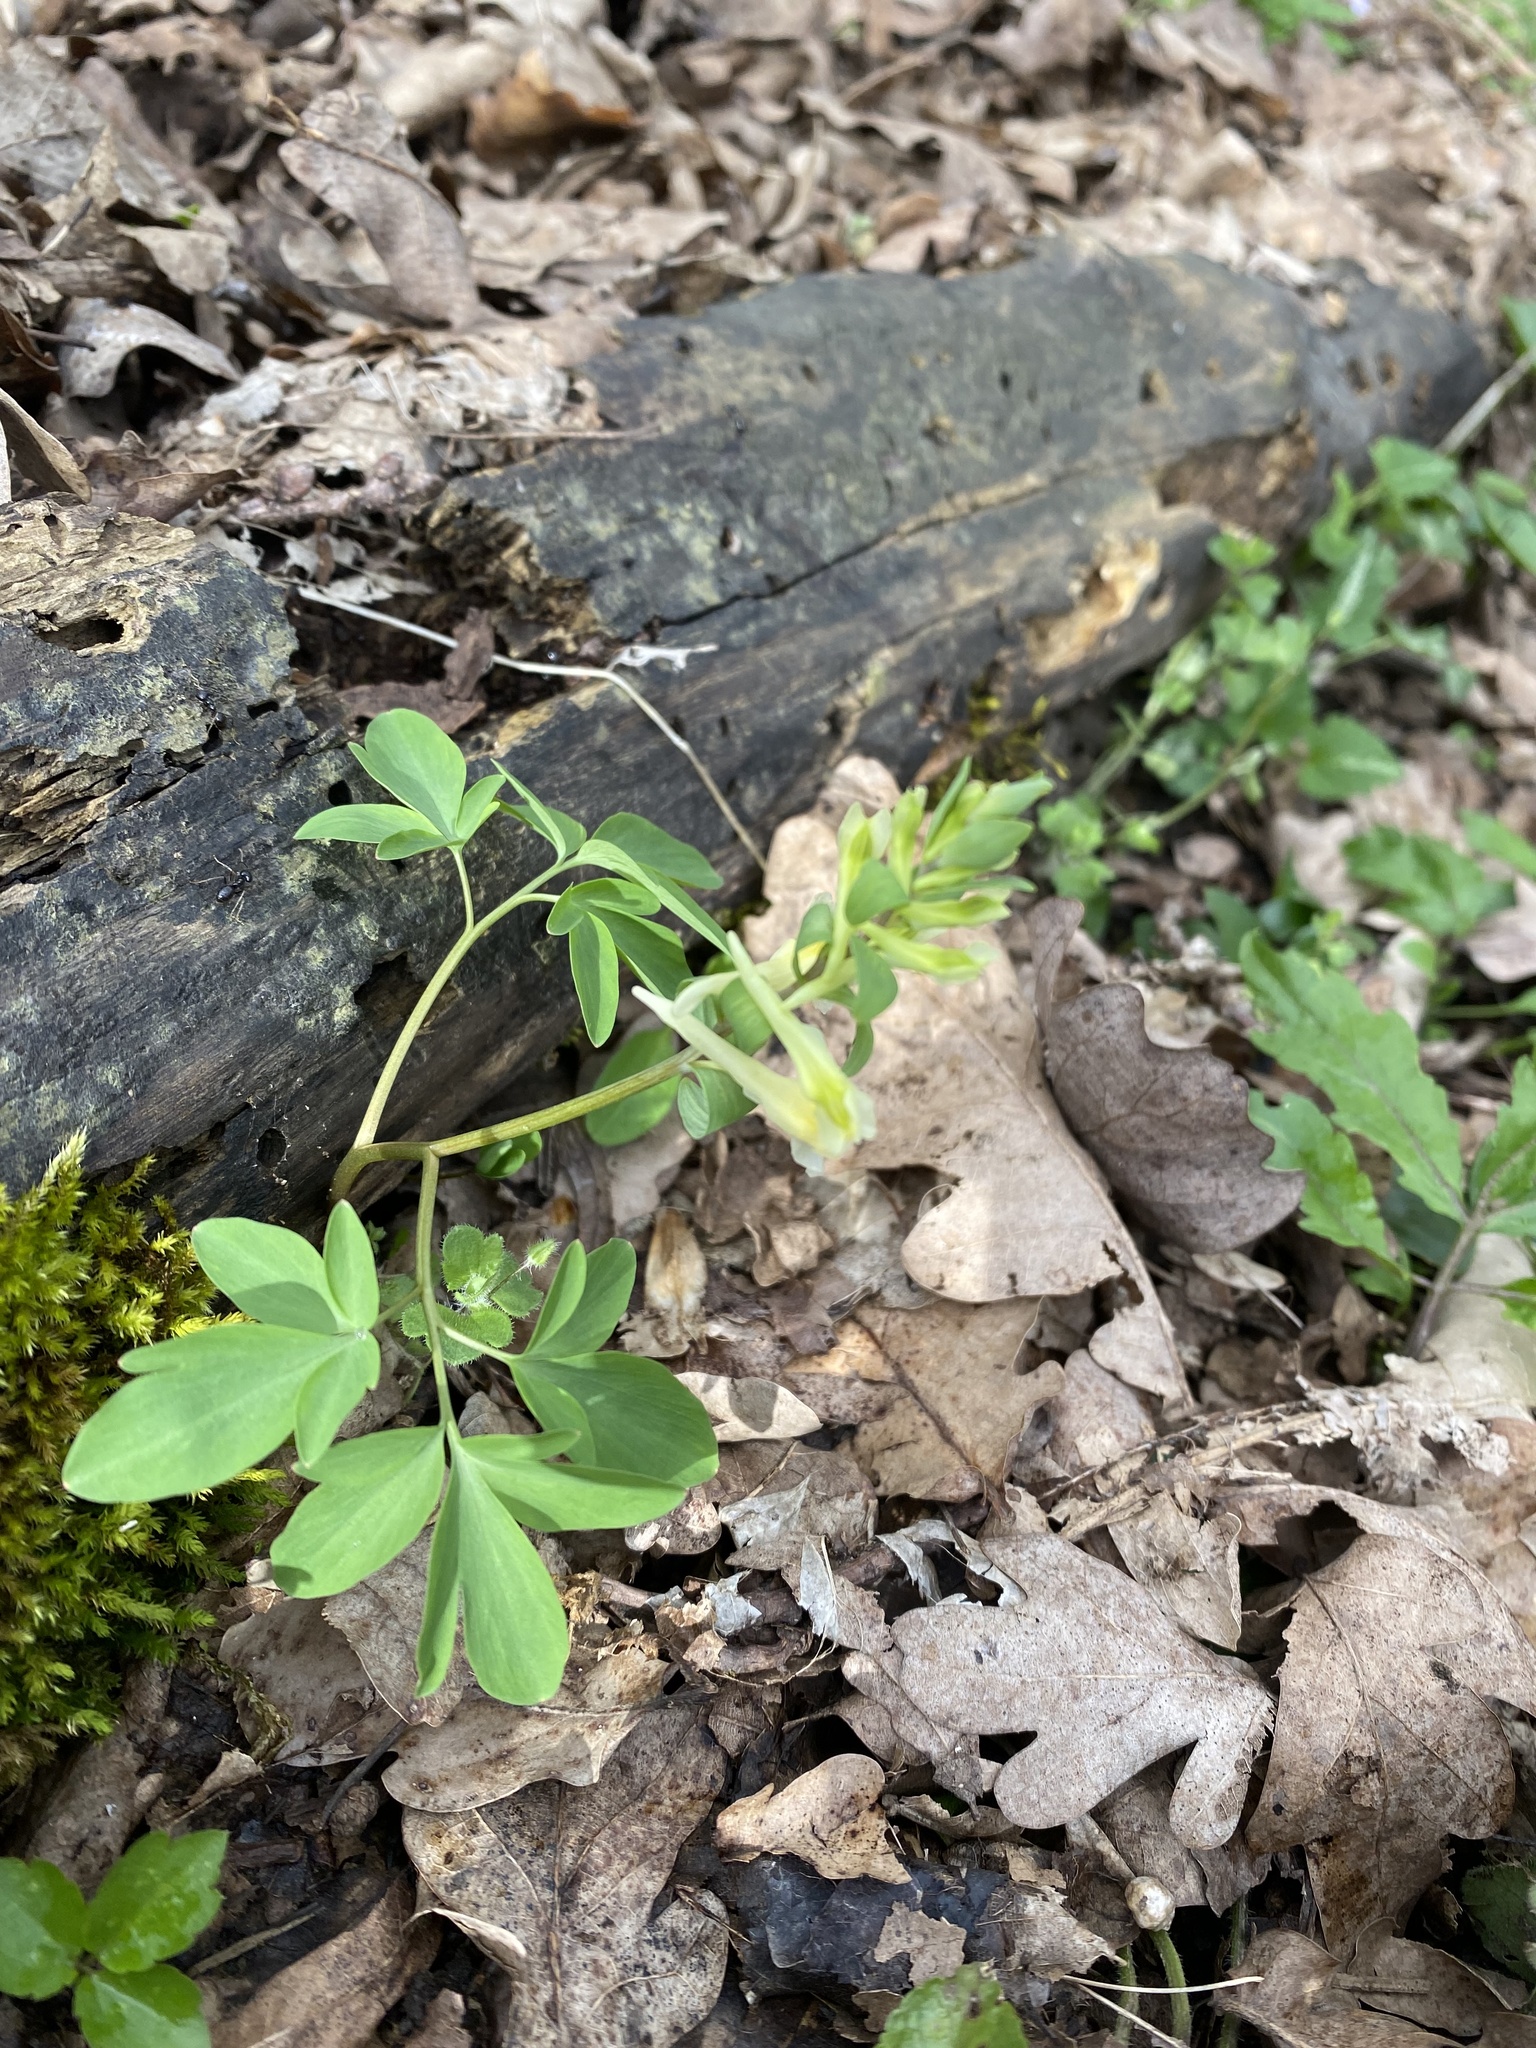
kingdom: Plantae
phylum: Tracheophyta
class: Magnoliopsida
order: Ranunculales
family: Papaveraceae
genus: Corydalis
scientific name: Corydalis cava
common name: Hollowroot
